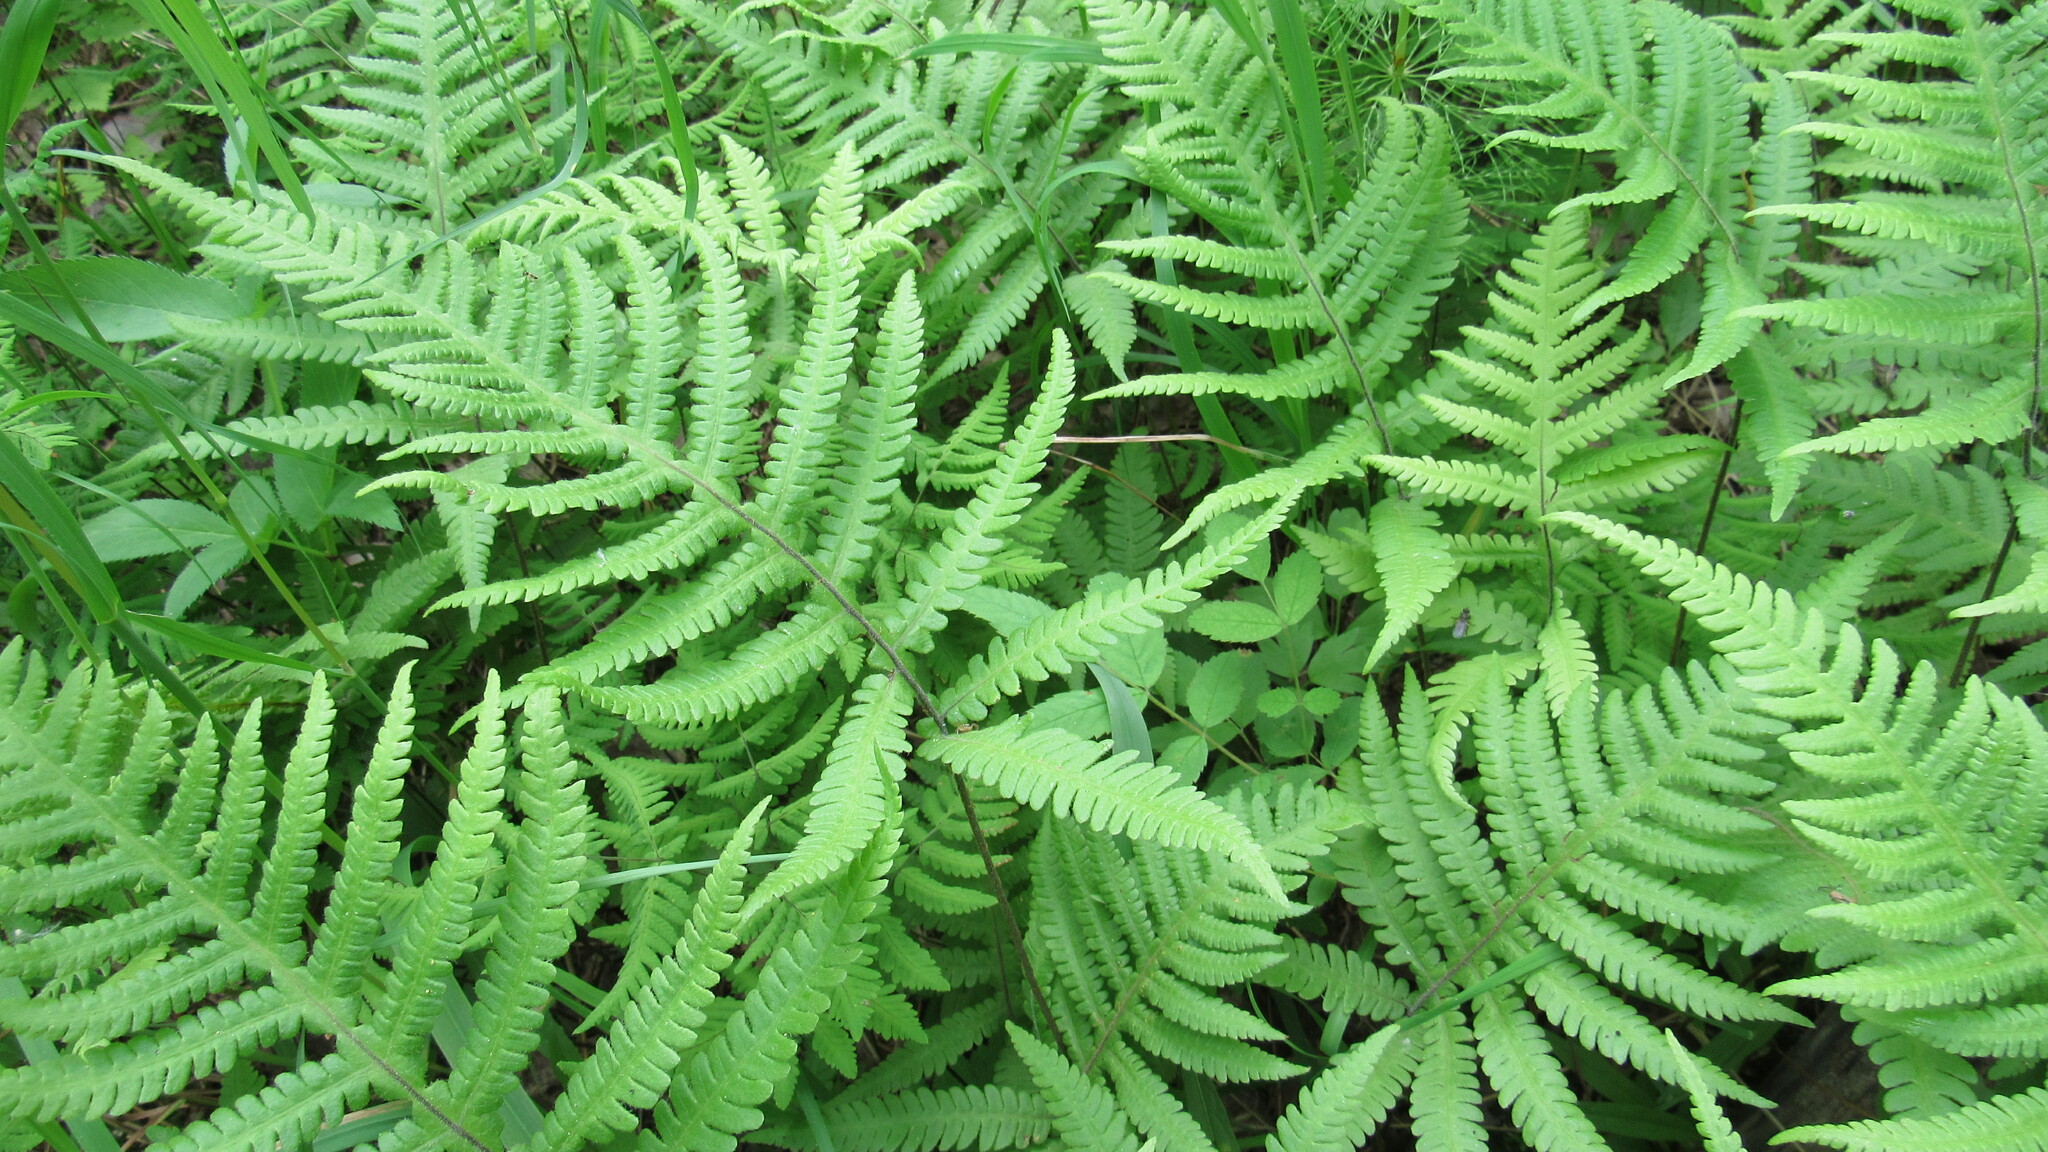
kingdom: Plantae
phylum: Tracheophyta
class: Polypodiopsida
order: Polypodiales
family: Thelypteridaceae
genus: Phegopteris
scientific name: Phegopteris connectilis
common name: Beech fern
